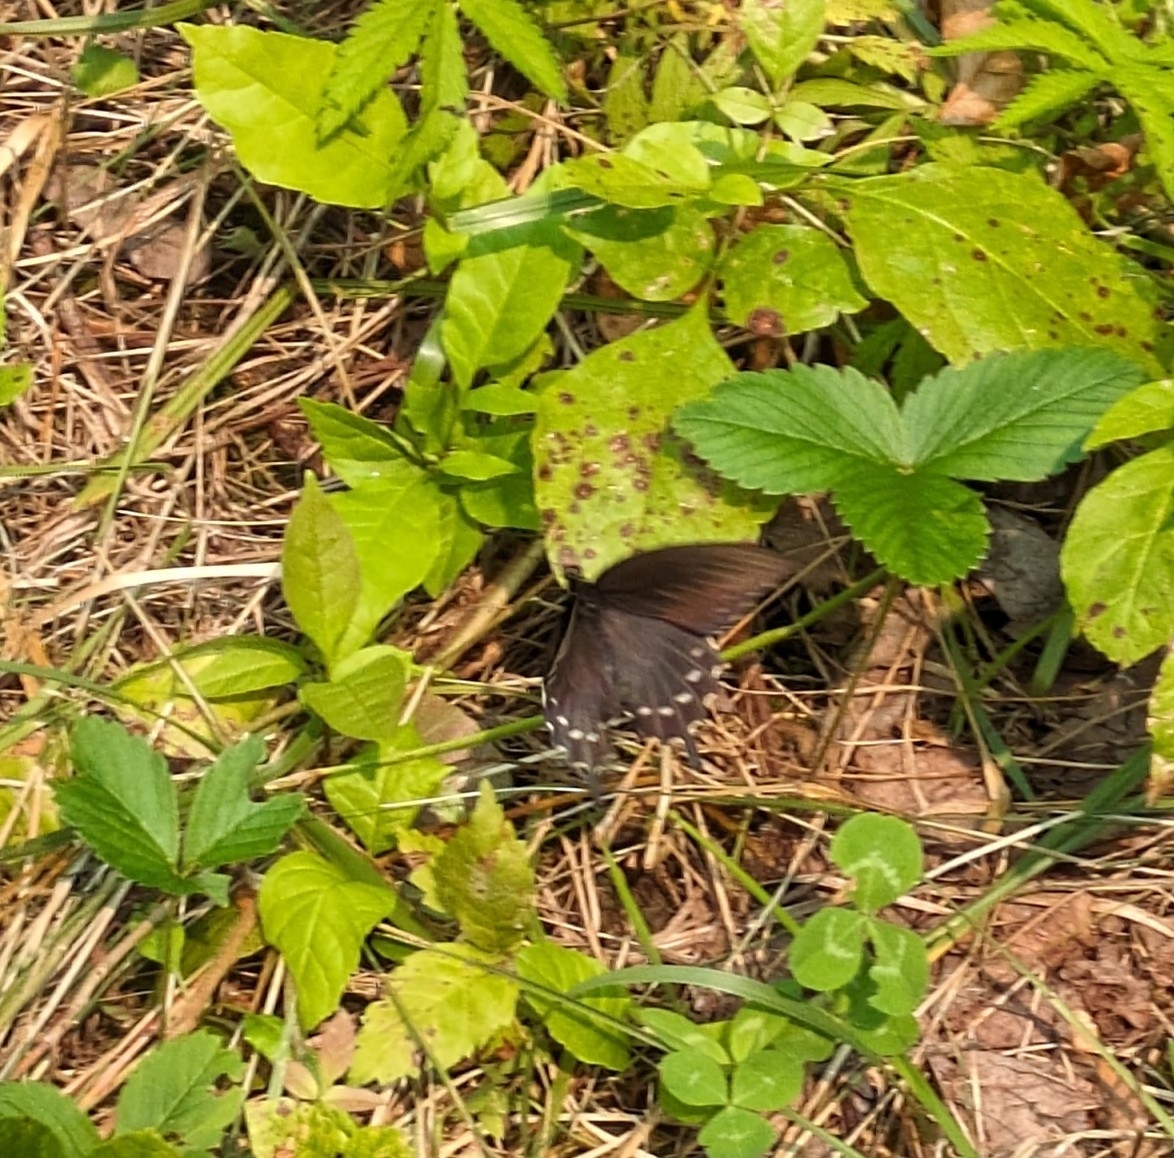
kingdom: Animalia
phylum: Arthropoda
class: Insecta
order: Lepidoptera
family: Papilionidae
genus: Battus
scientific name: Battus philenor
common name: Pipevine swallowtail
